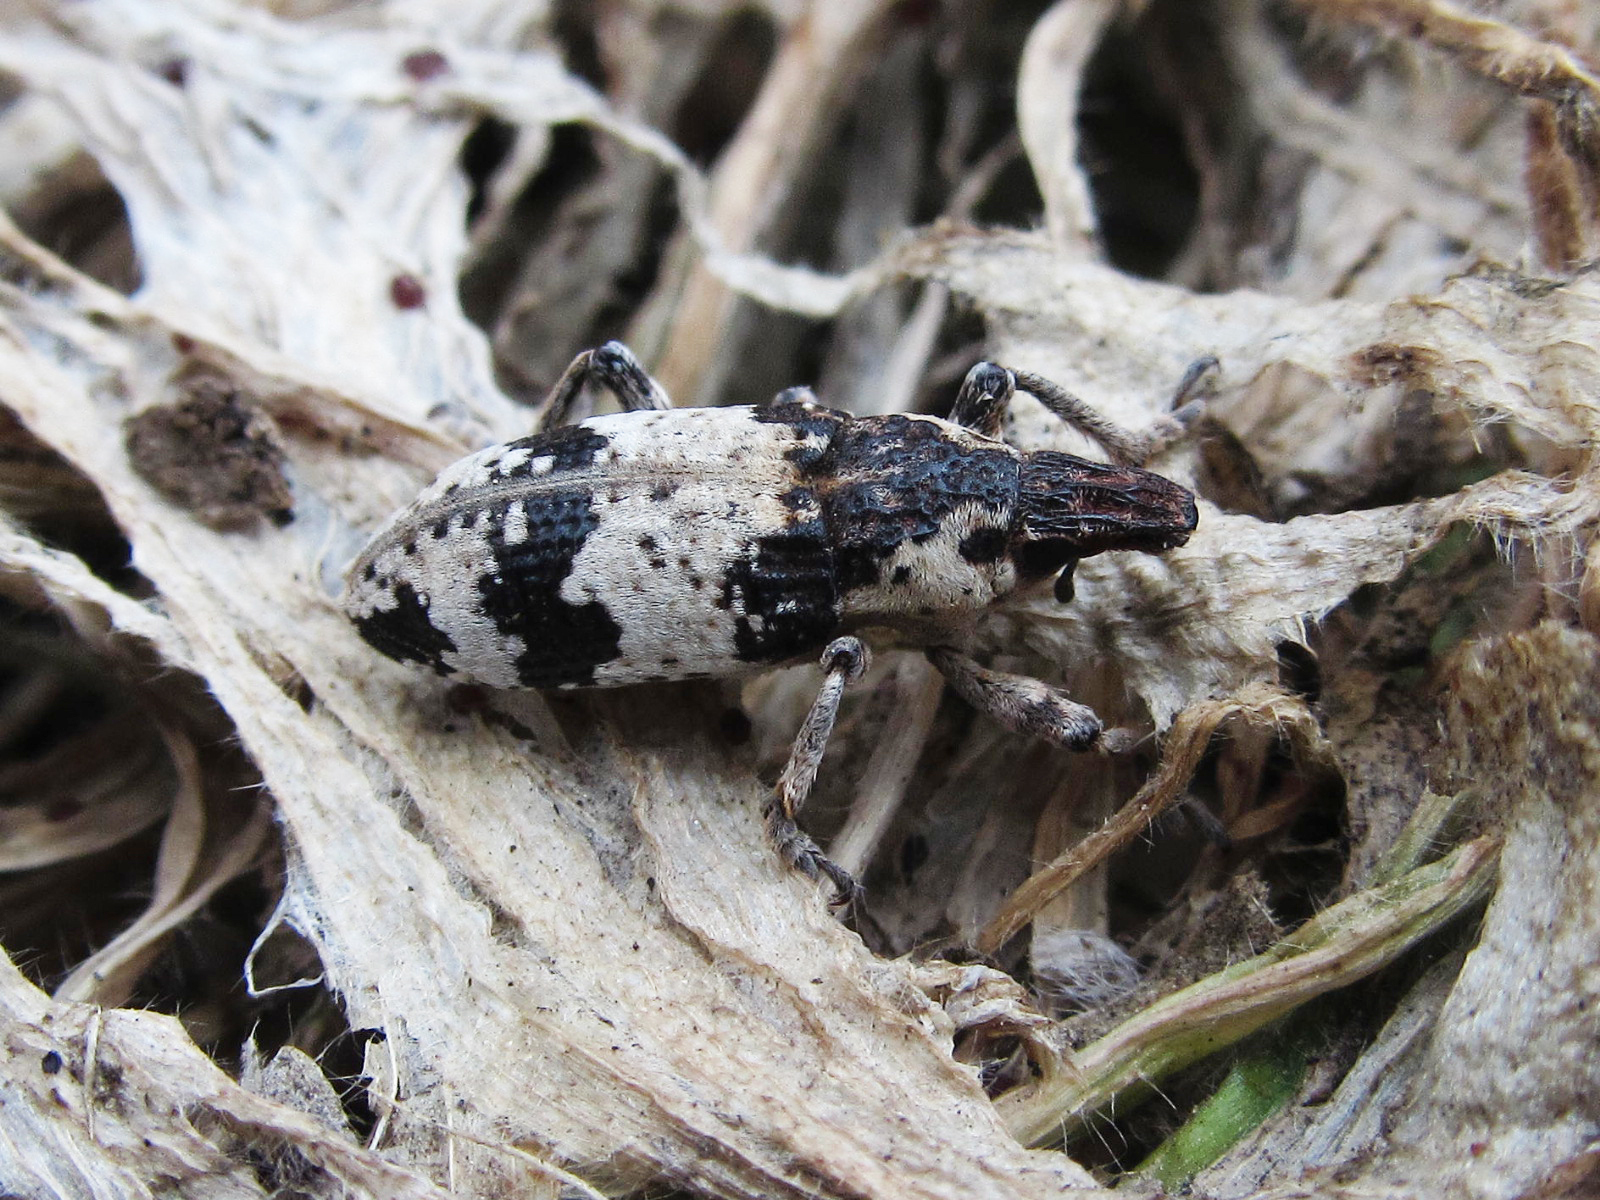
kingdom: Animalia
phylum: Arthropoda
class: Insecta
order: Coleoptera
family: Curculionidae
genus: Bothynoderes
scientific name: Bothynoderes affinis
